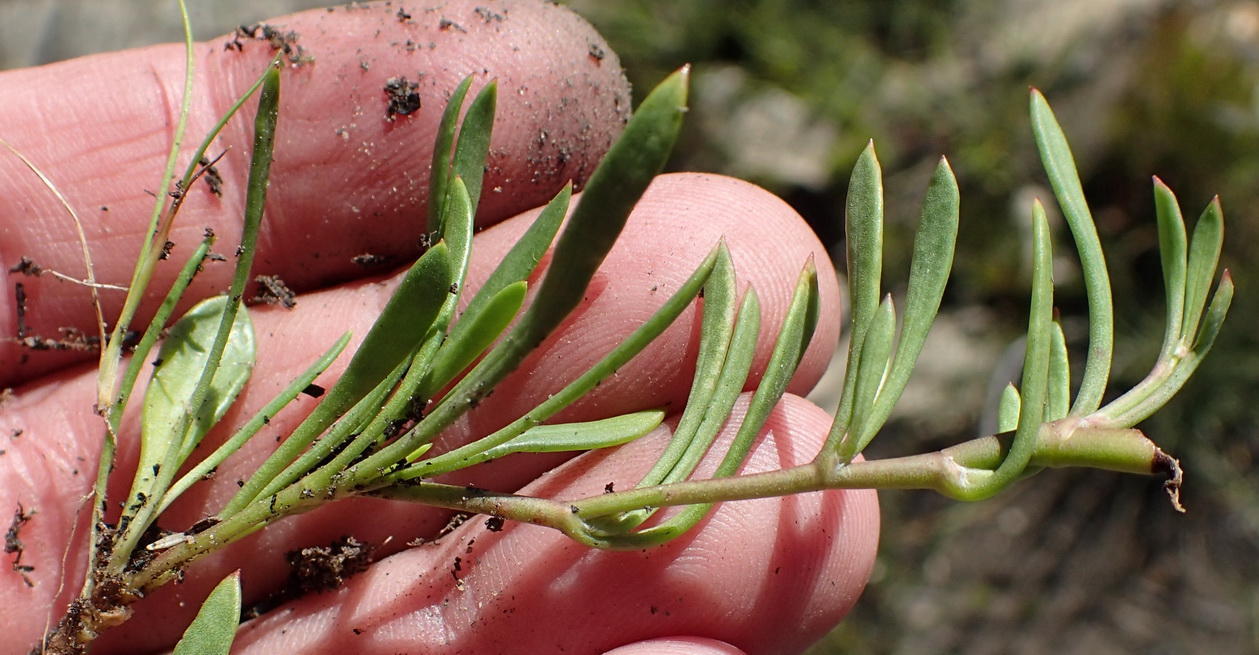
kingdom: Plantae
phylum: Tracheophyta
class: Magnoliopsida
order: Apiales
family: Apiaceae
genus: Centella
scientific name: Centella sessilis
